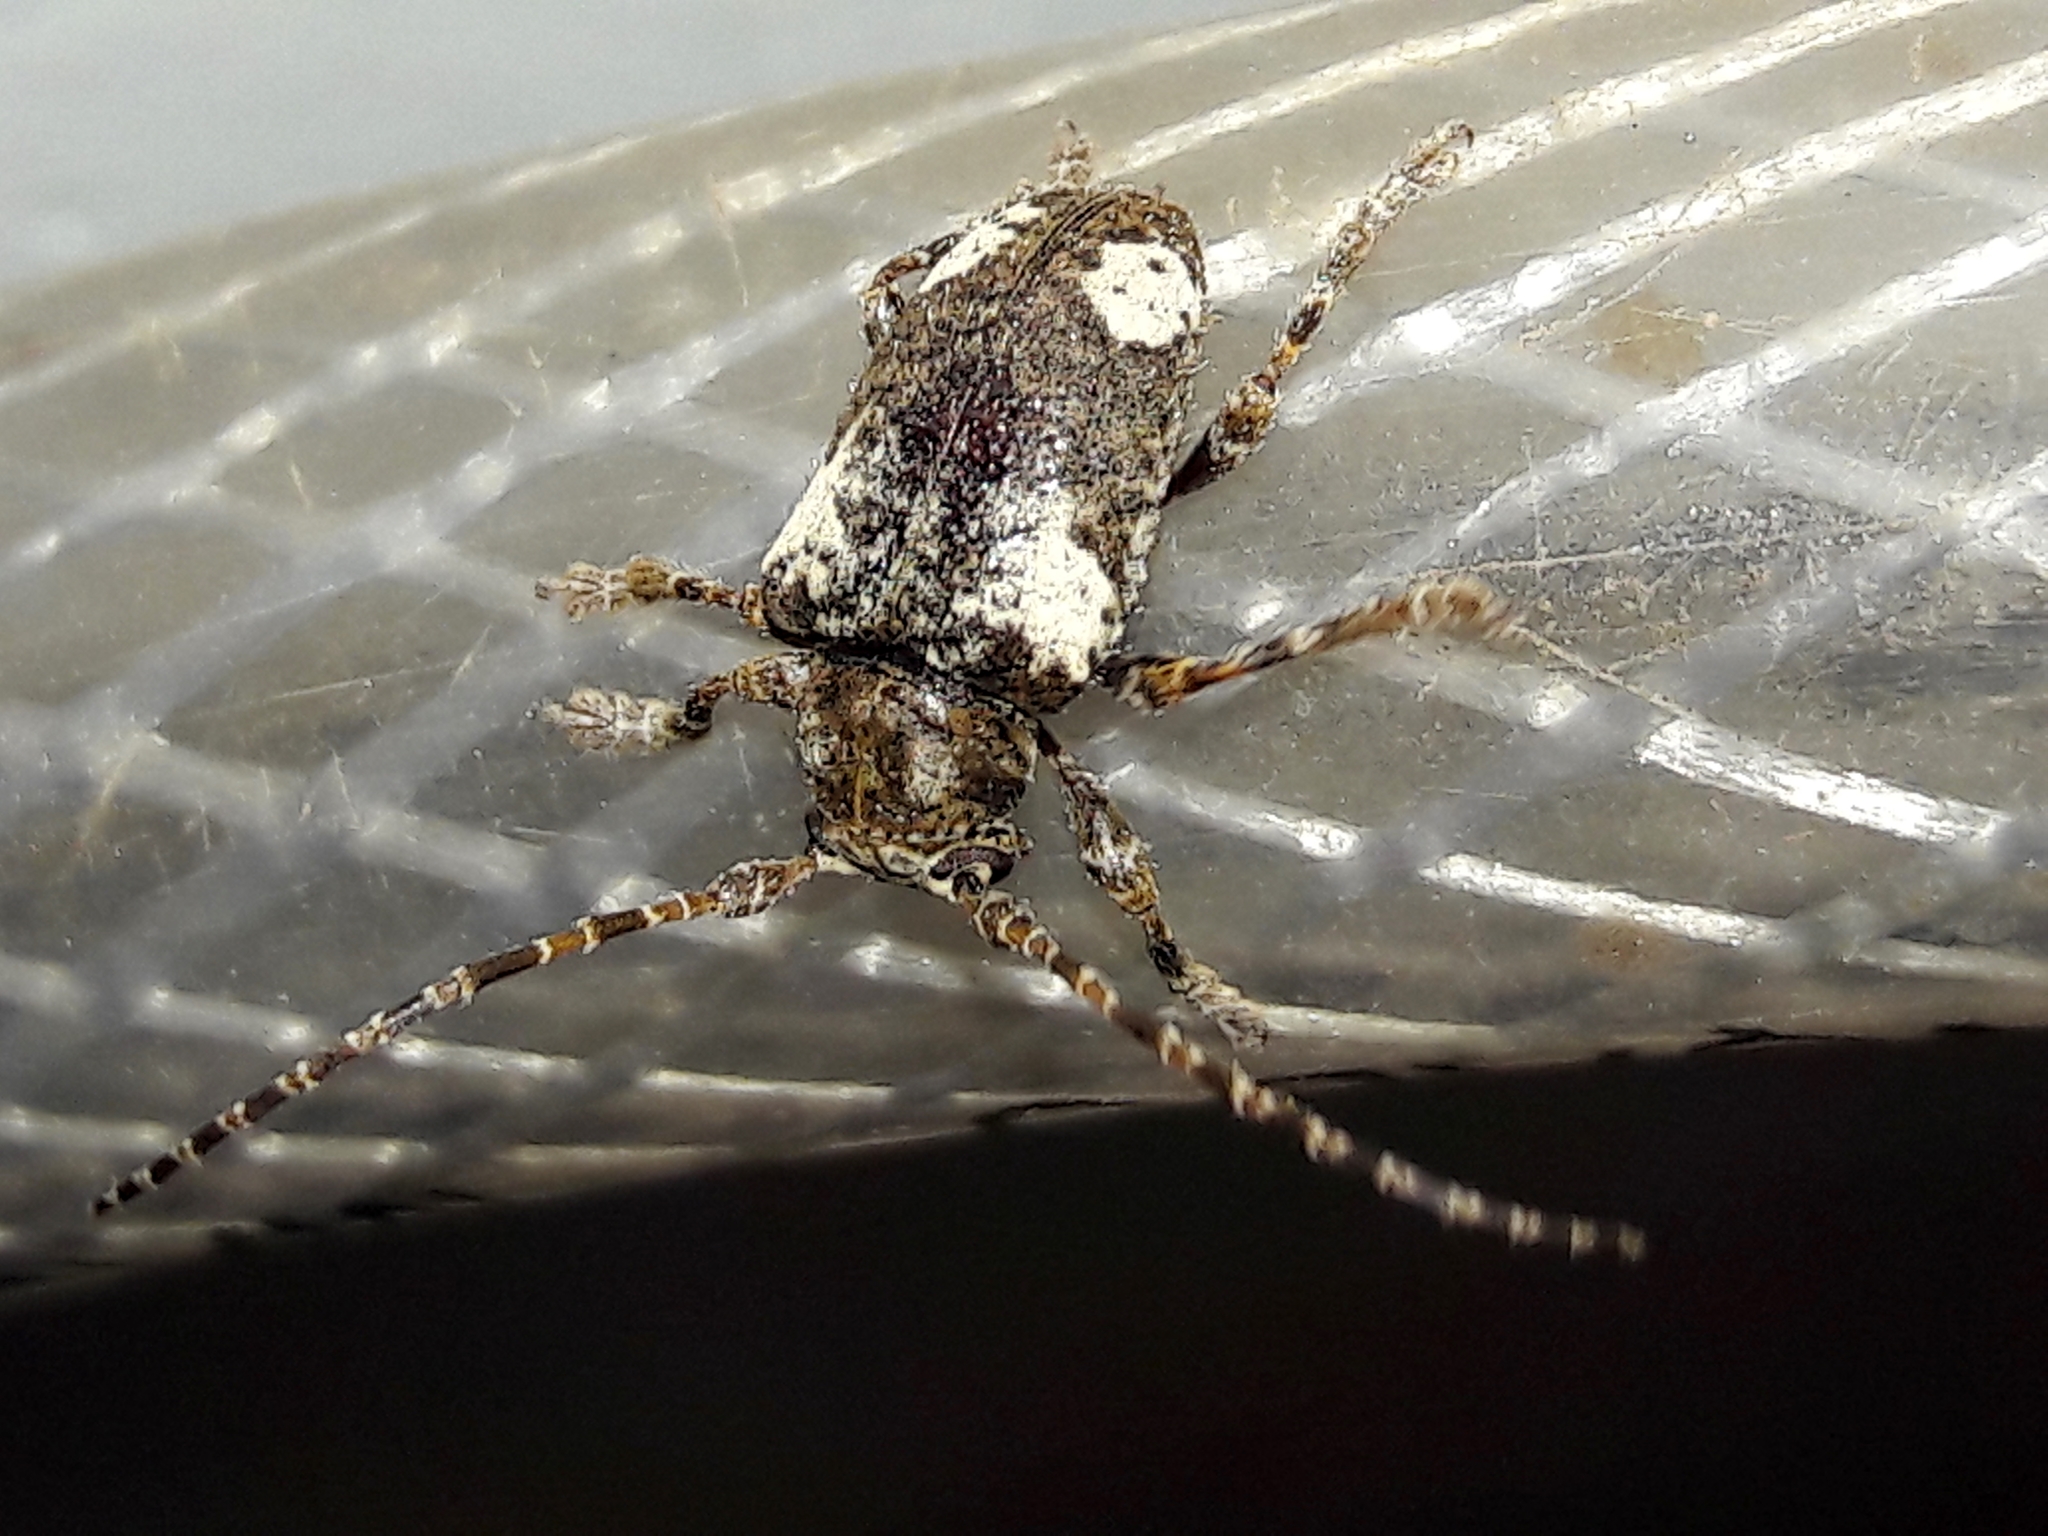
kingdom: Animalia
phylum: Arthropoda
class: Insecta
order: Coleoptera
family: Cerambycidae
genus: Aerenea
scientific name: Aerenea quadriplagiata
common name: Amaranth stem borer
